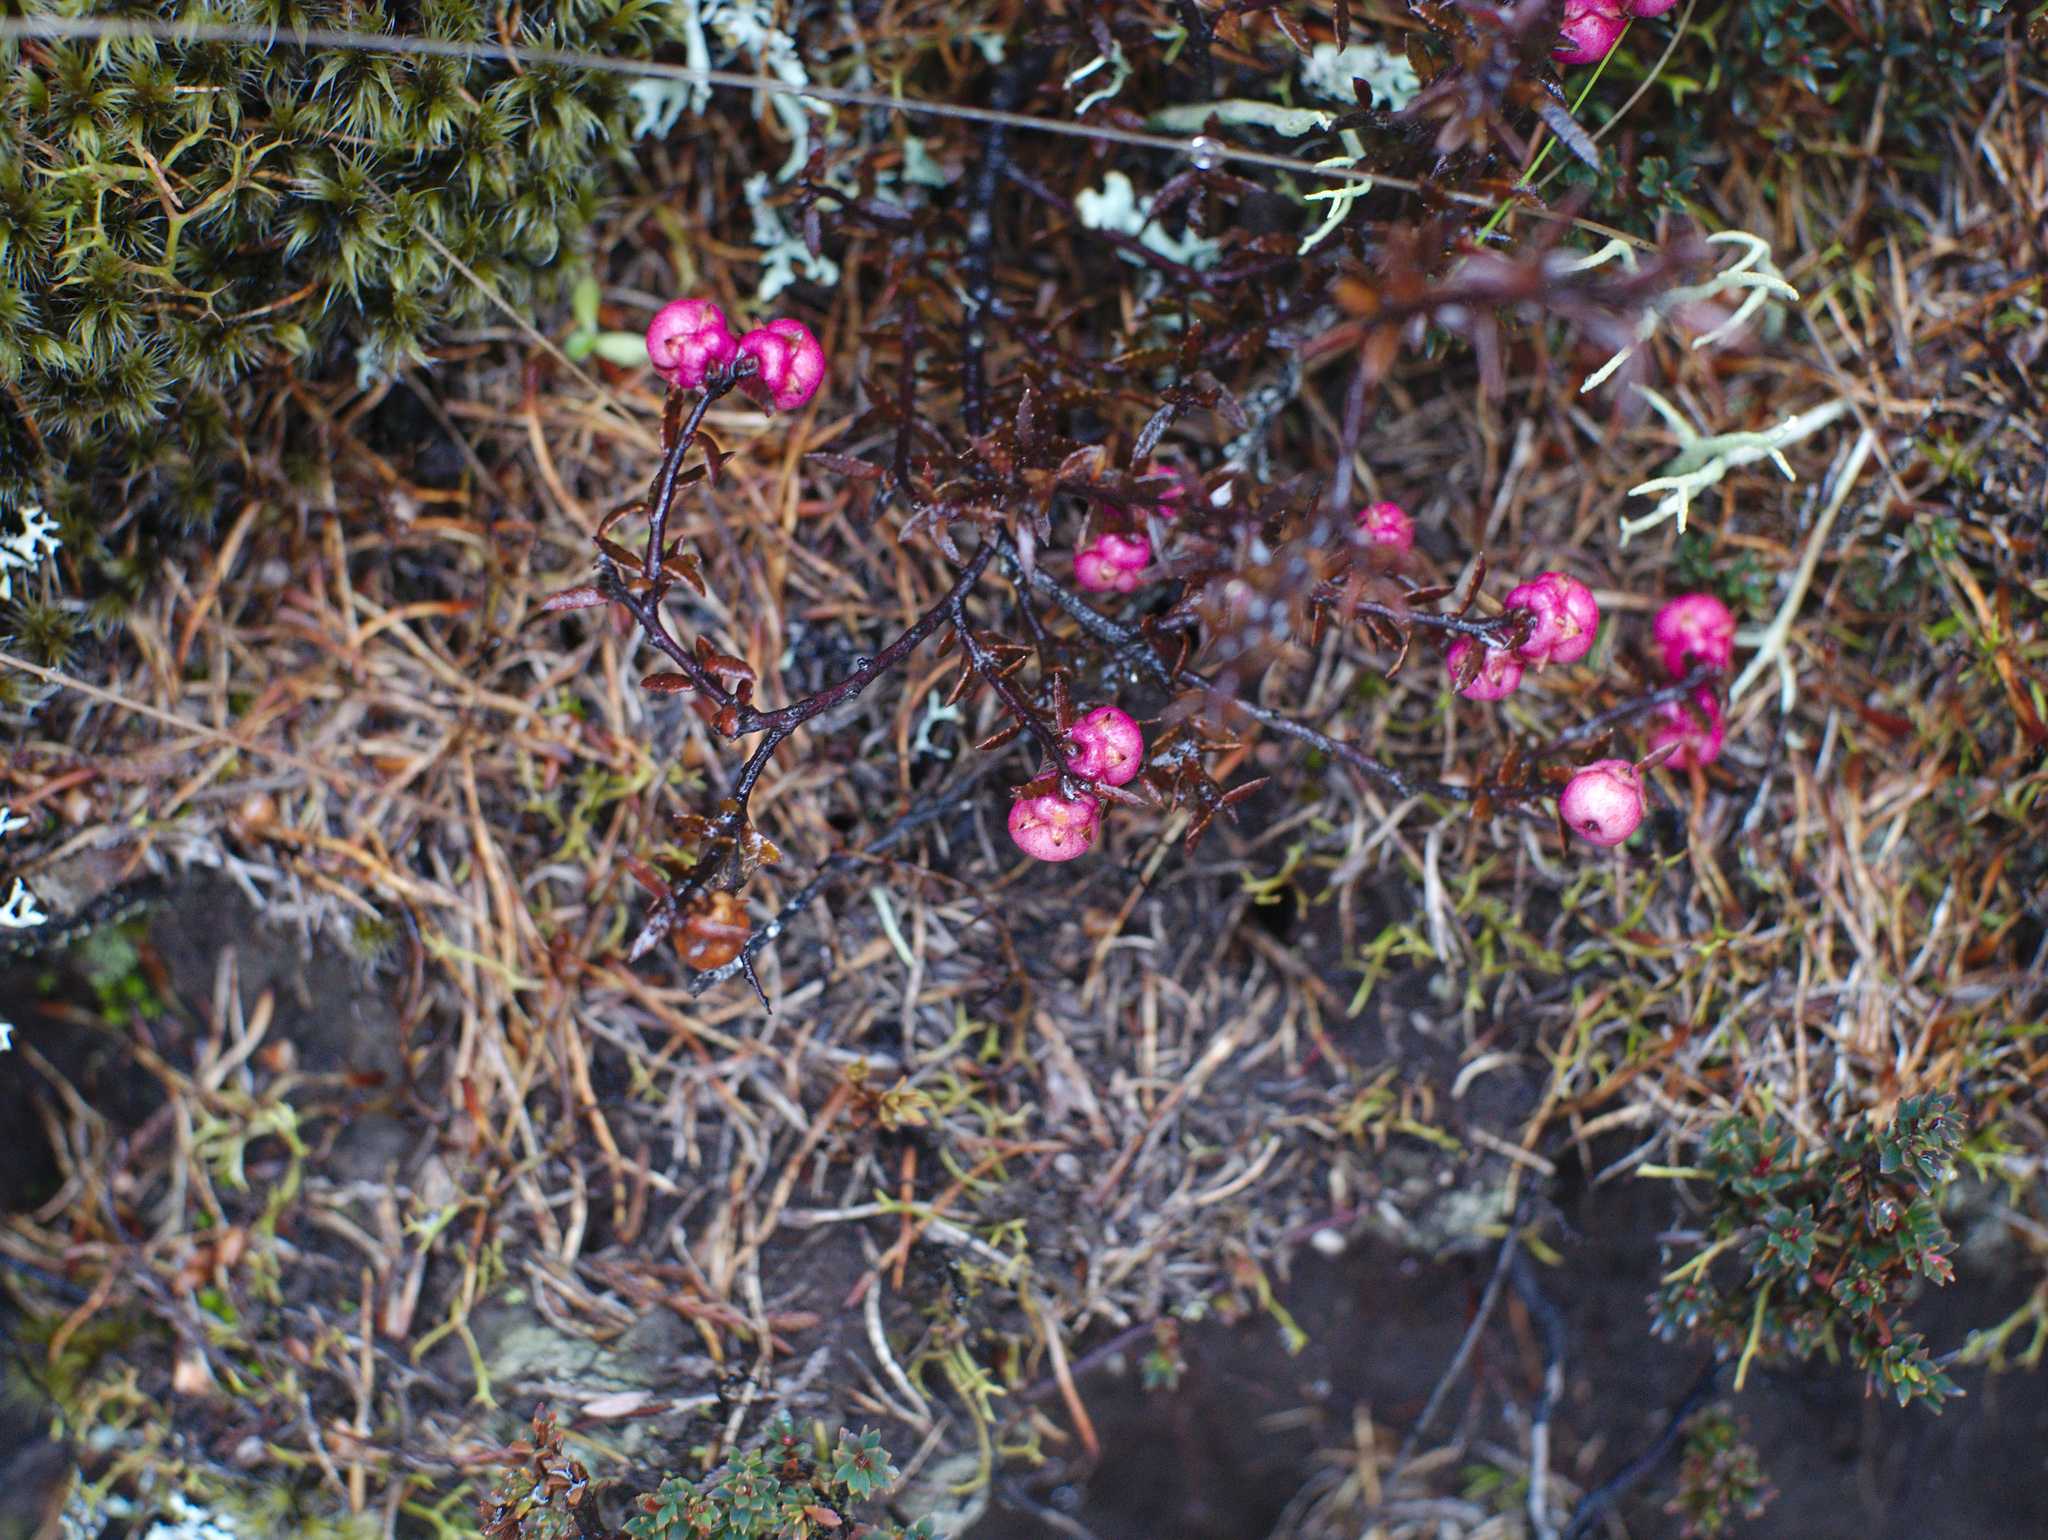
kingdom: Plantae
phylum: Tracheophyta
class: Magnoliopsida
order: Ericales
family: Ericaceae
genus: Gaultheria
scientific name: Gaultheria macrostigma
